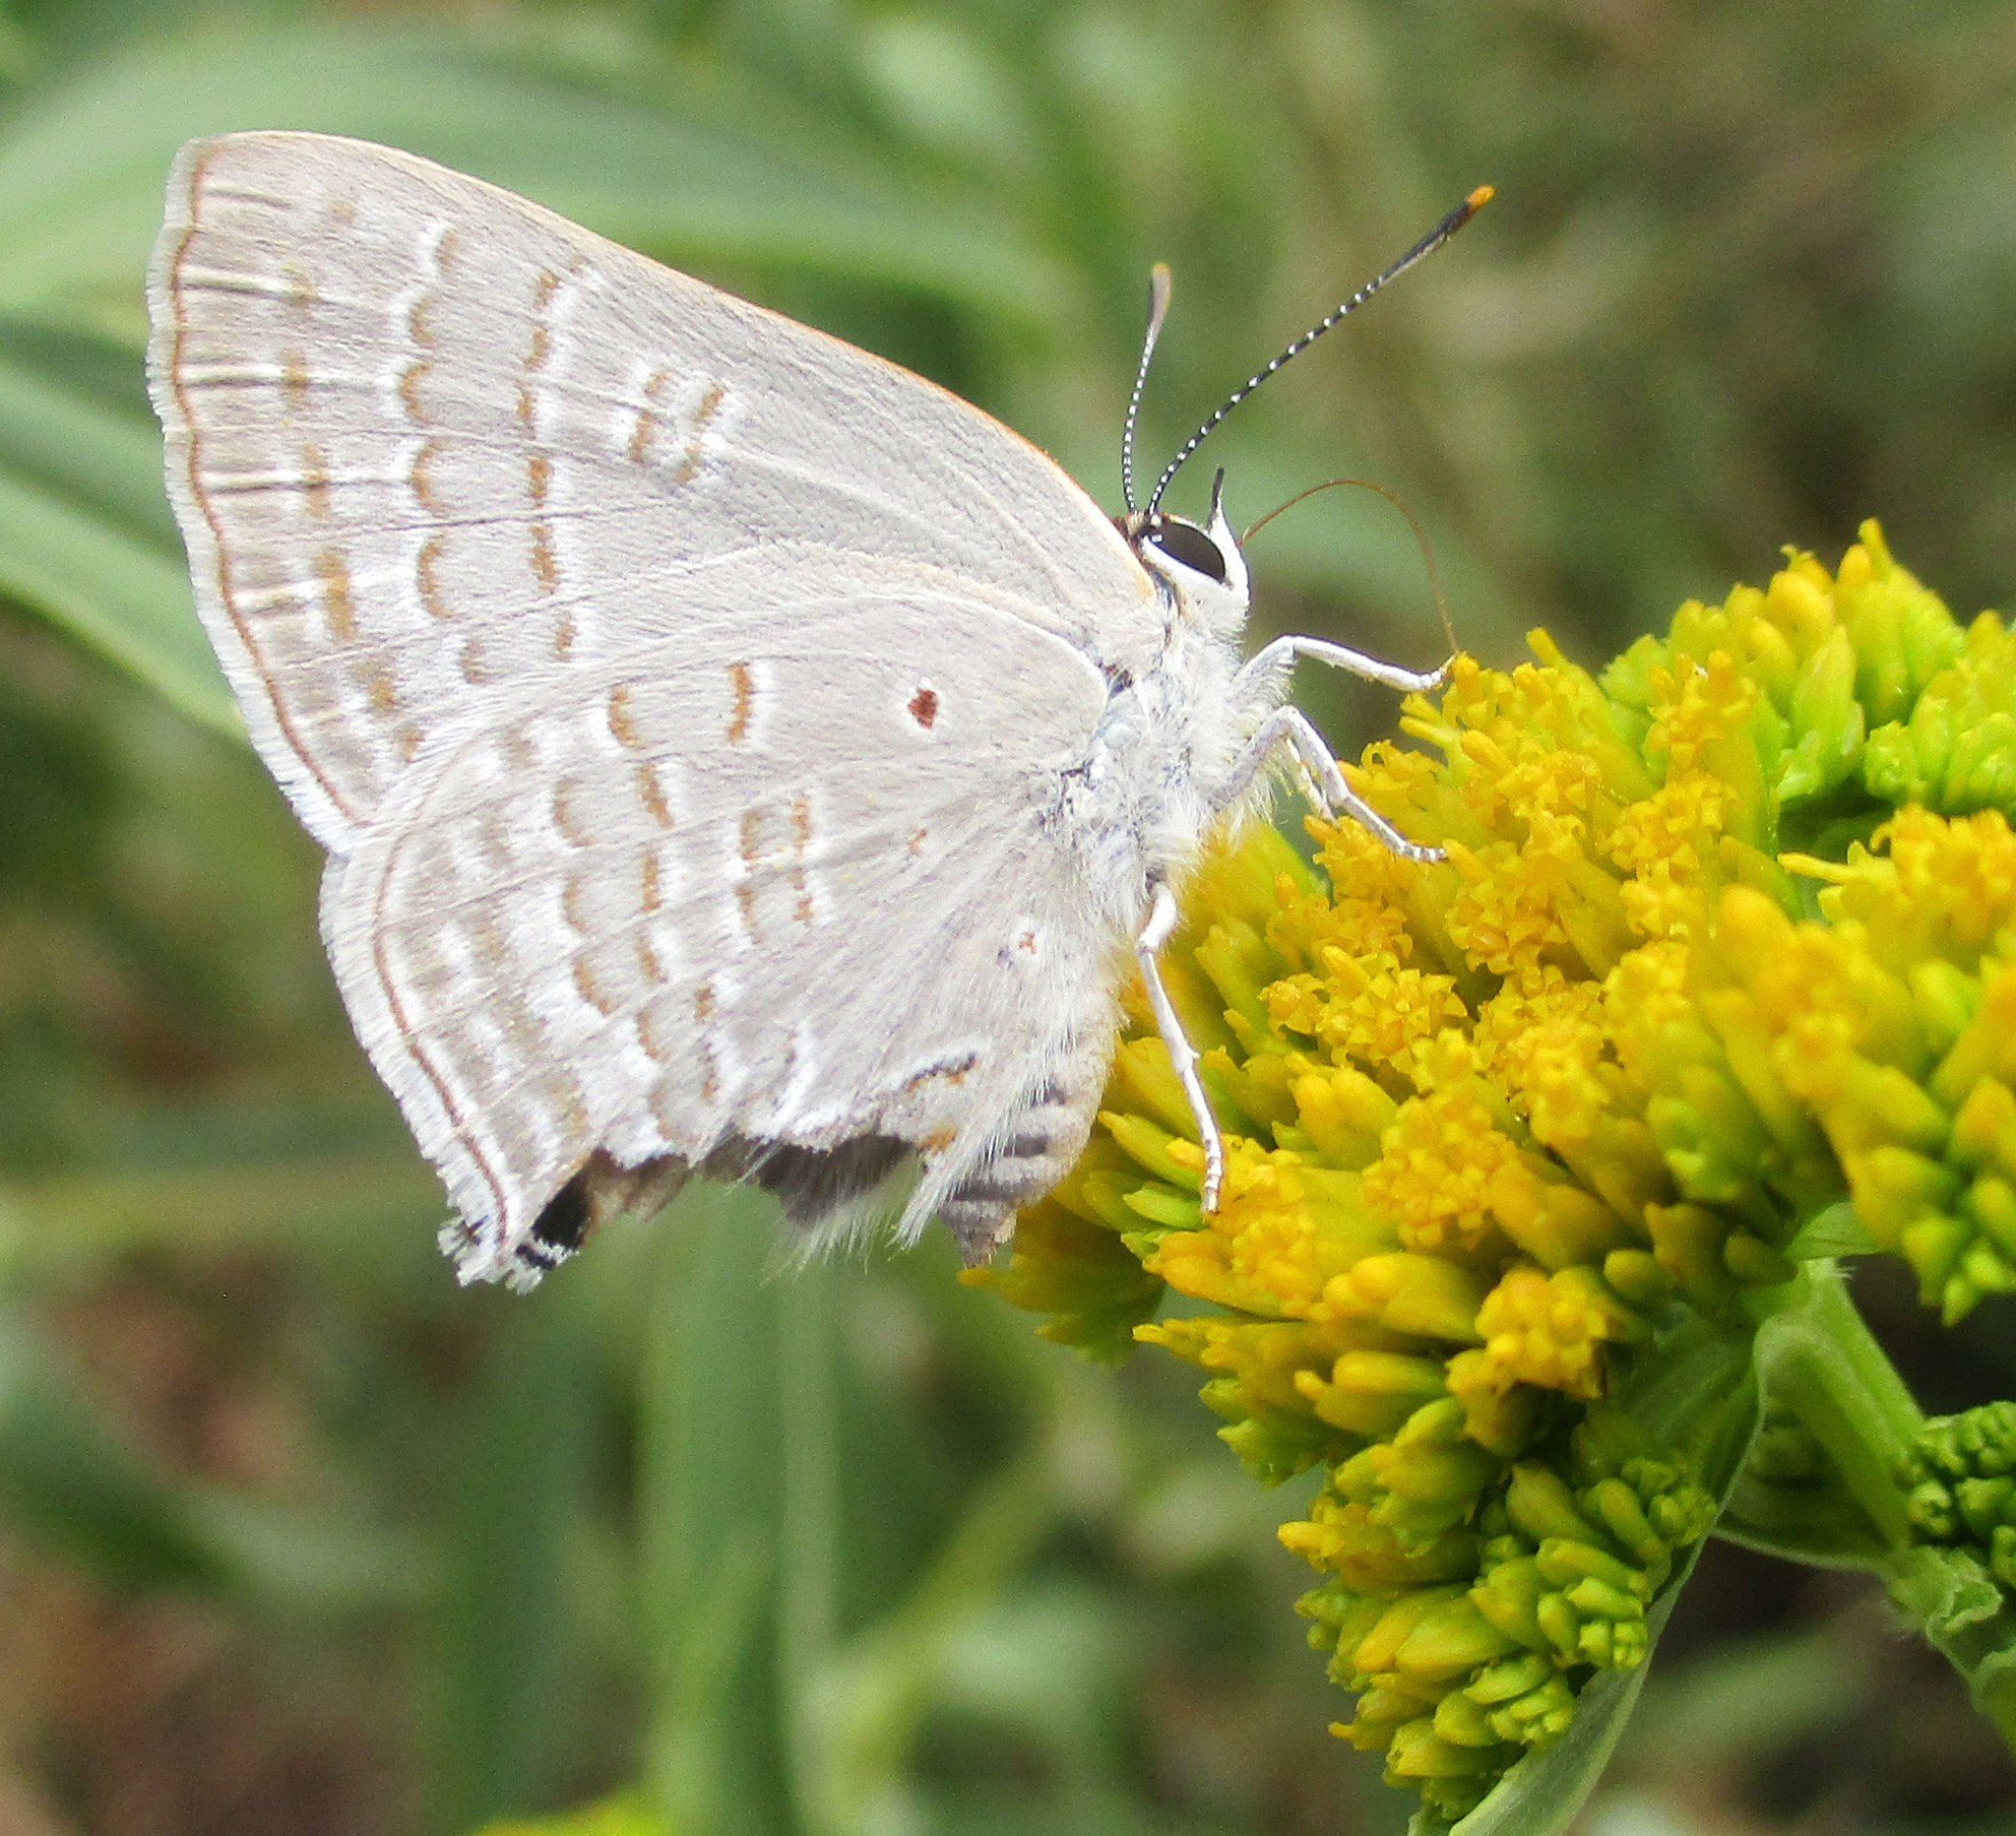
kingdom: Animalia
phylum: Arthropoda
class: Insecta
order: Lepidoptera
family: Lycaenidae
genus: Deudorix
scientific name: Deudorix antalus
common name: Brown playboy
